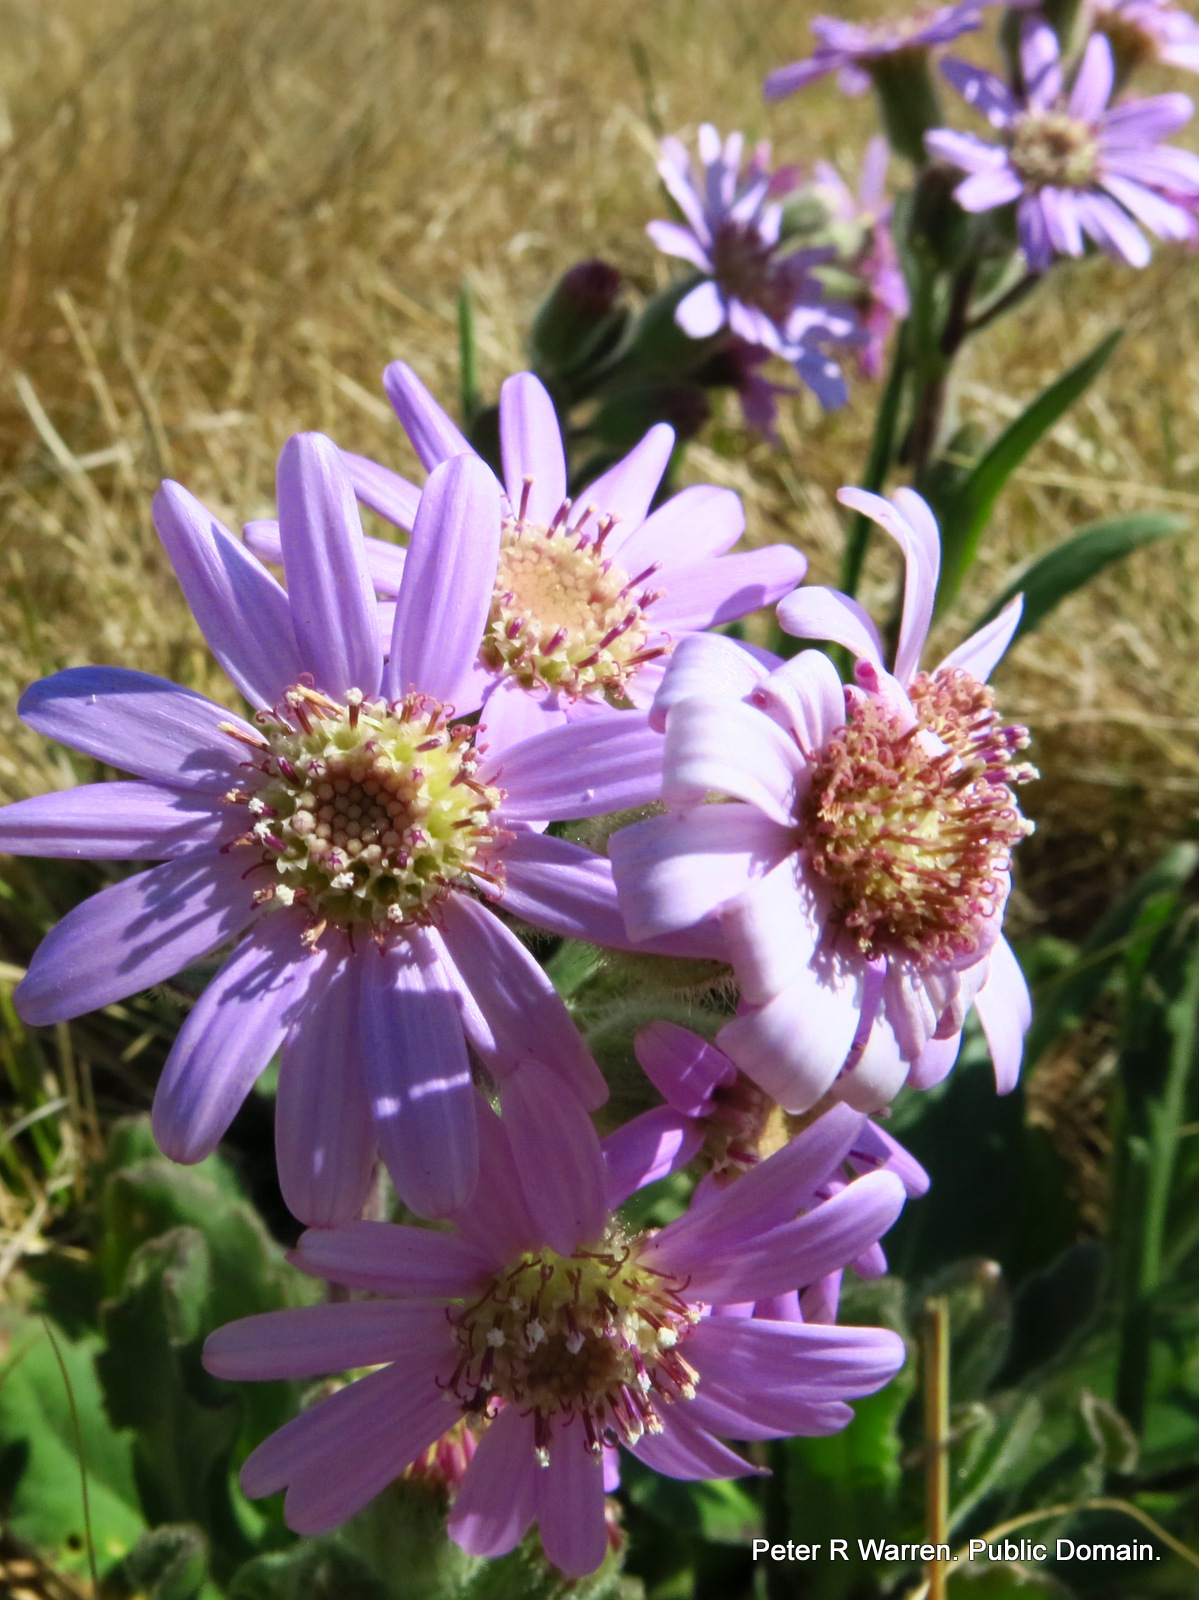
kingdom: Plantae
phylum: Tracheophyta
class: Magnoliopsida
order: Asterales
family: Asteraceae
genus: Senecio
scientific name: Senecio speciosus
